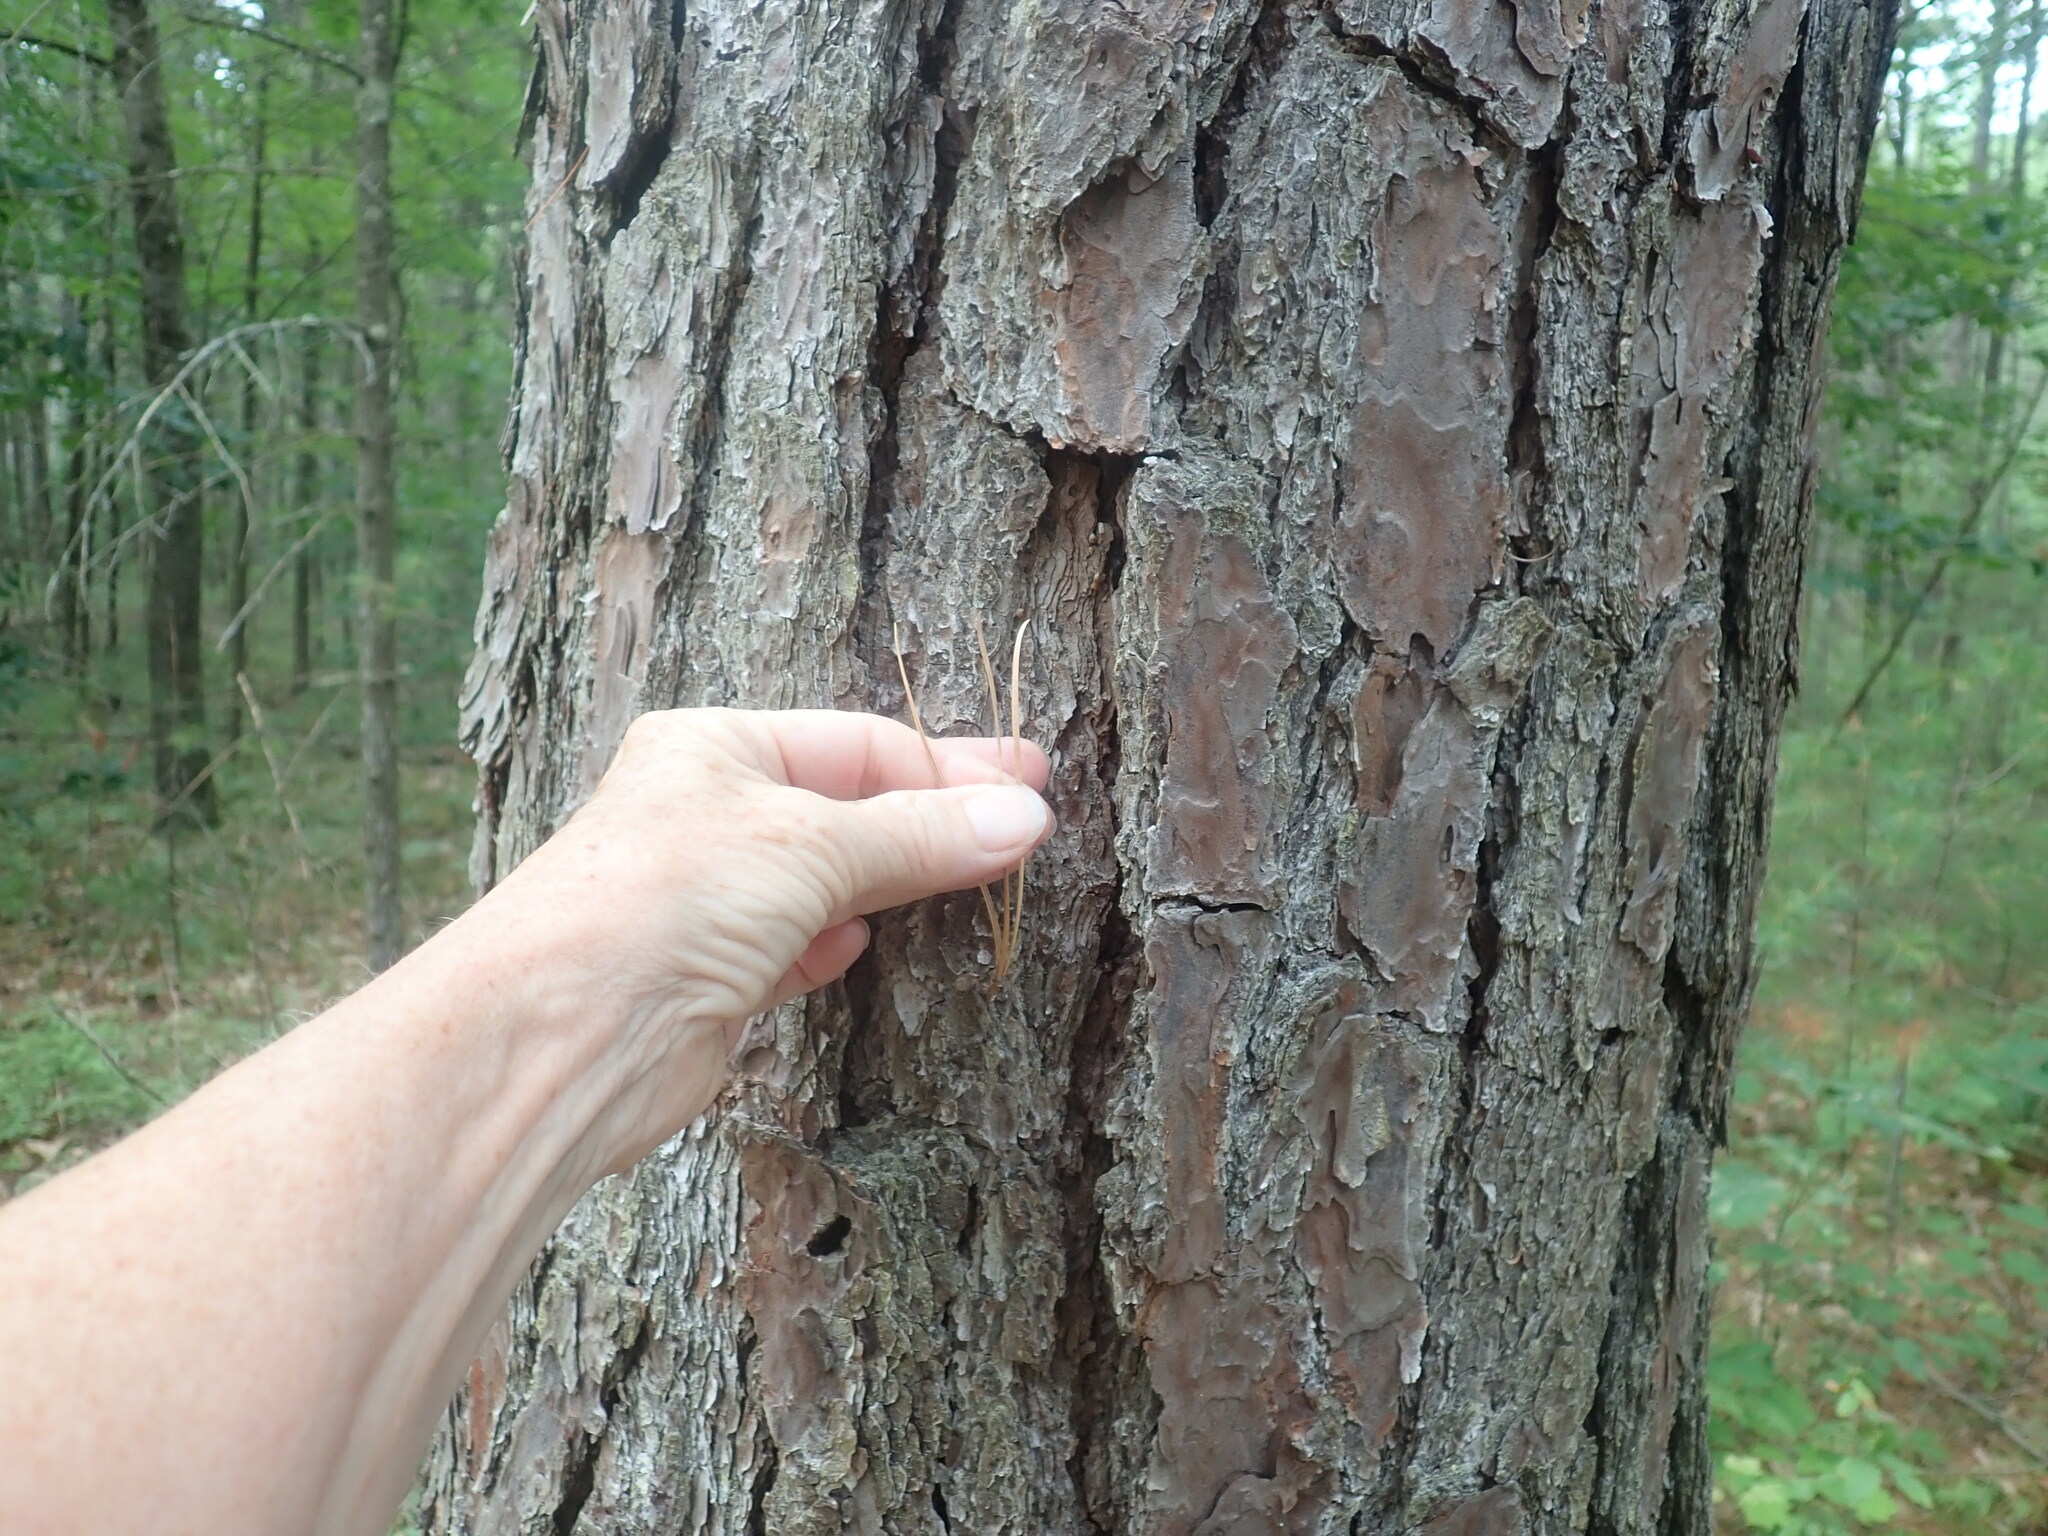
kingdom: Plantae
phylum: Tracheophyta
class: Pinopsida
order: Pinales
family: Pinaceae
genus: Pinus
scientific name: Pinus rigida
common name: Pitch pine
